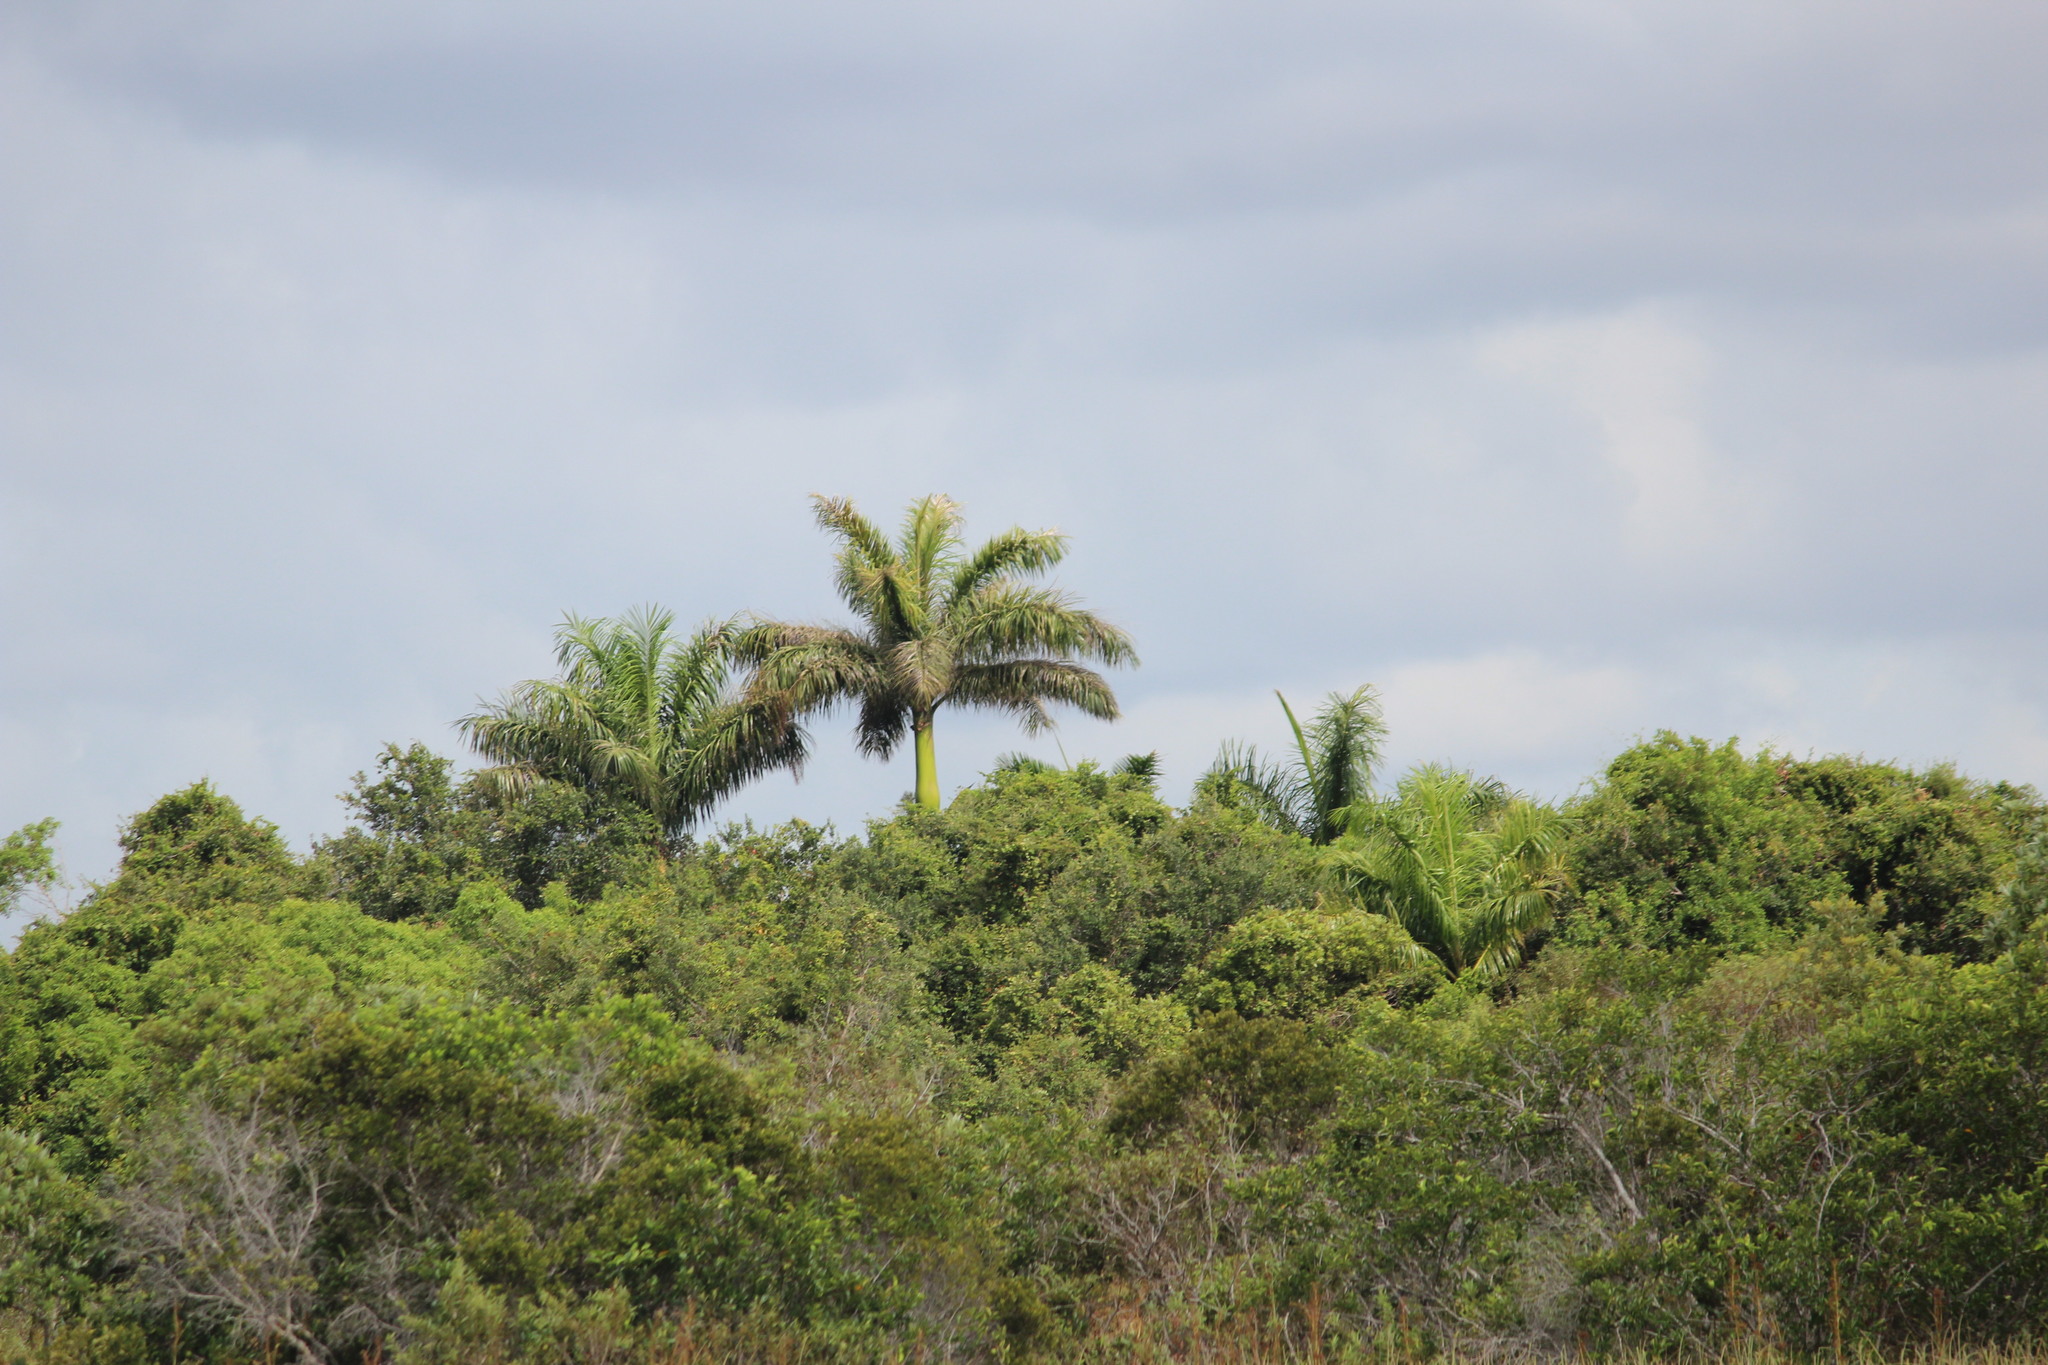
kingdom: Plantae
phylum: Tracheophyta
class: Liliopsida
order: Arecales
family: Arecaceae
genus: Roystonea
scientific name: Roystonea regia
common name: Florida royal palm
